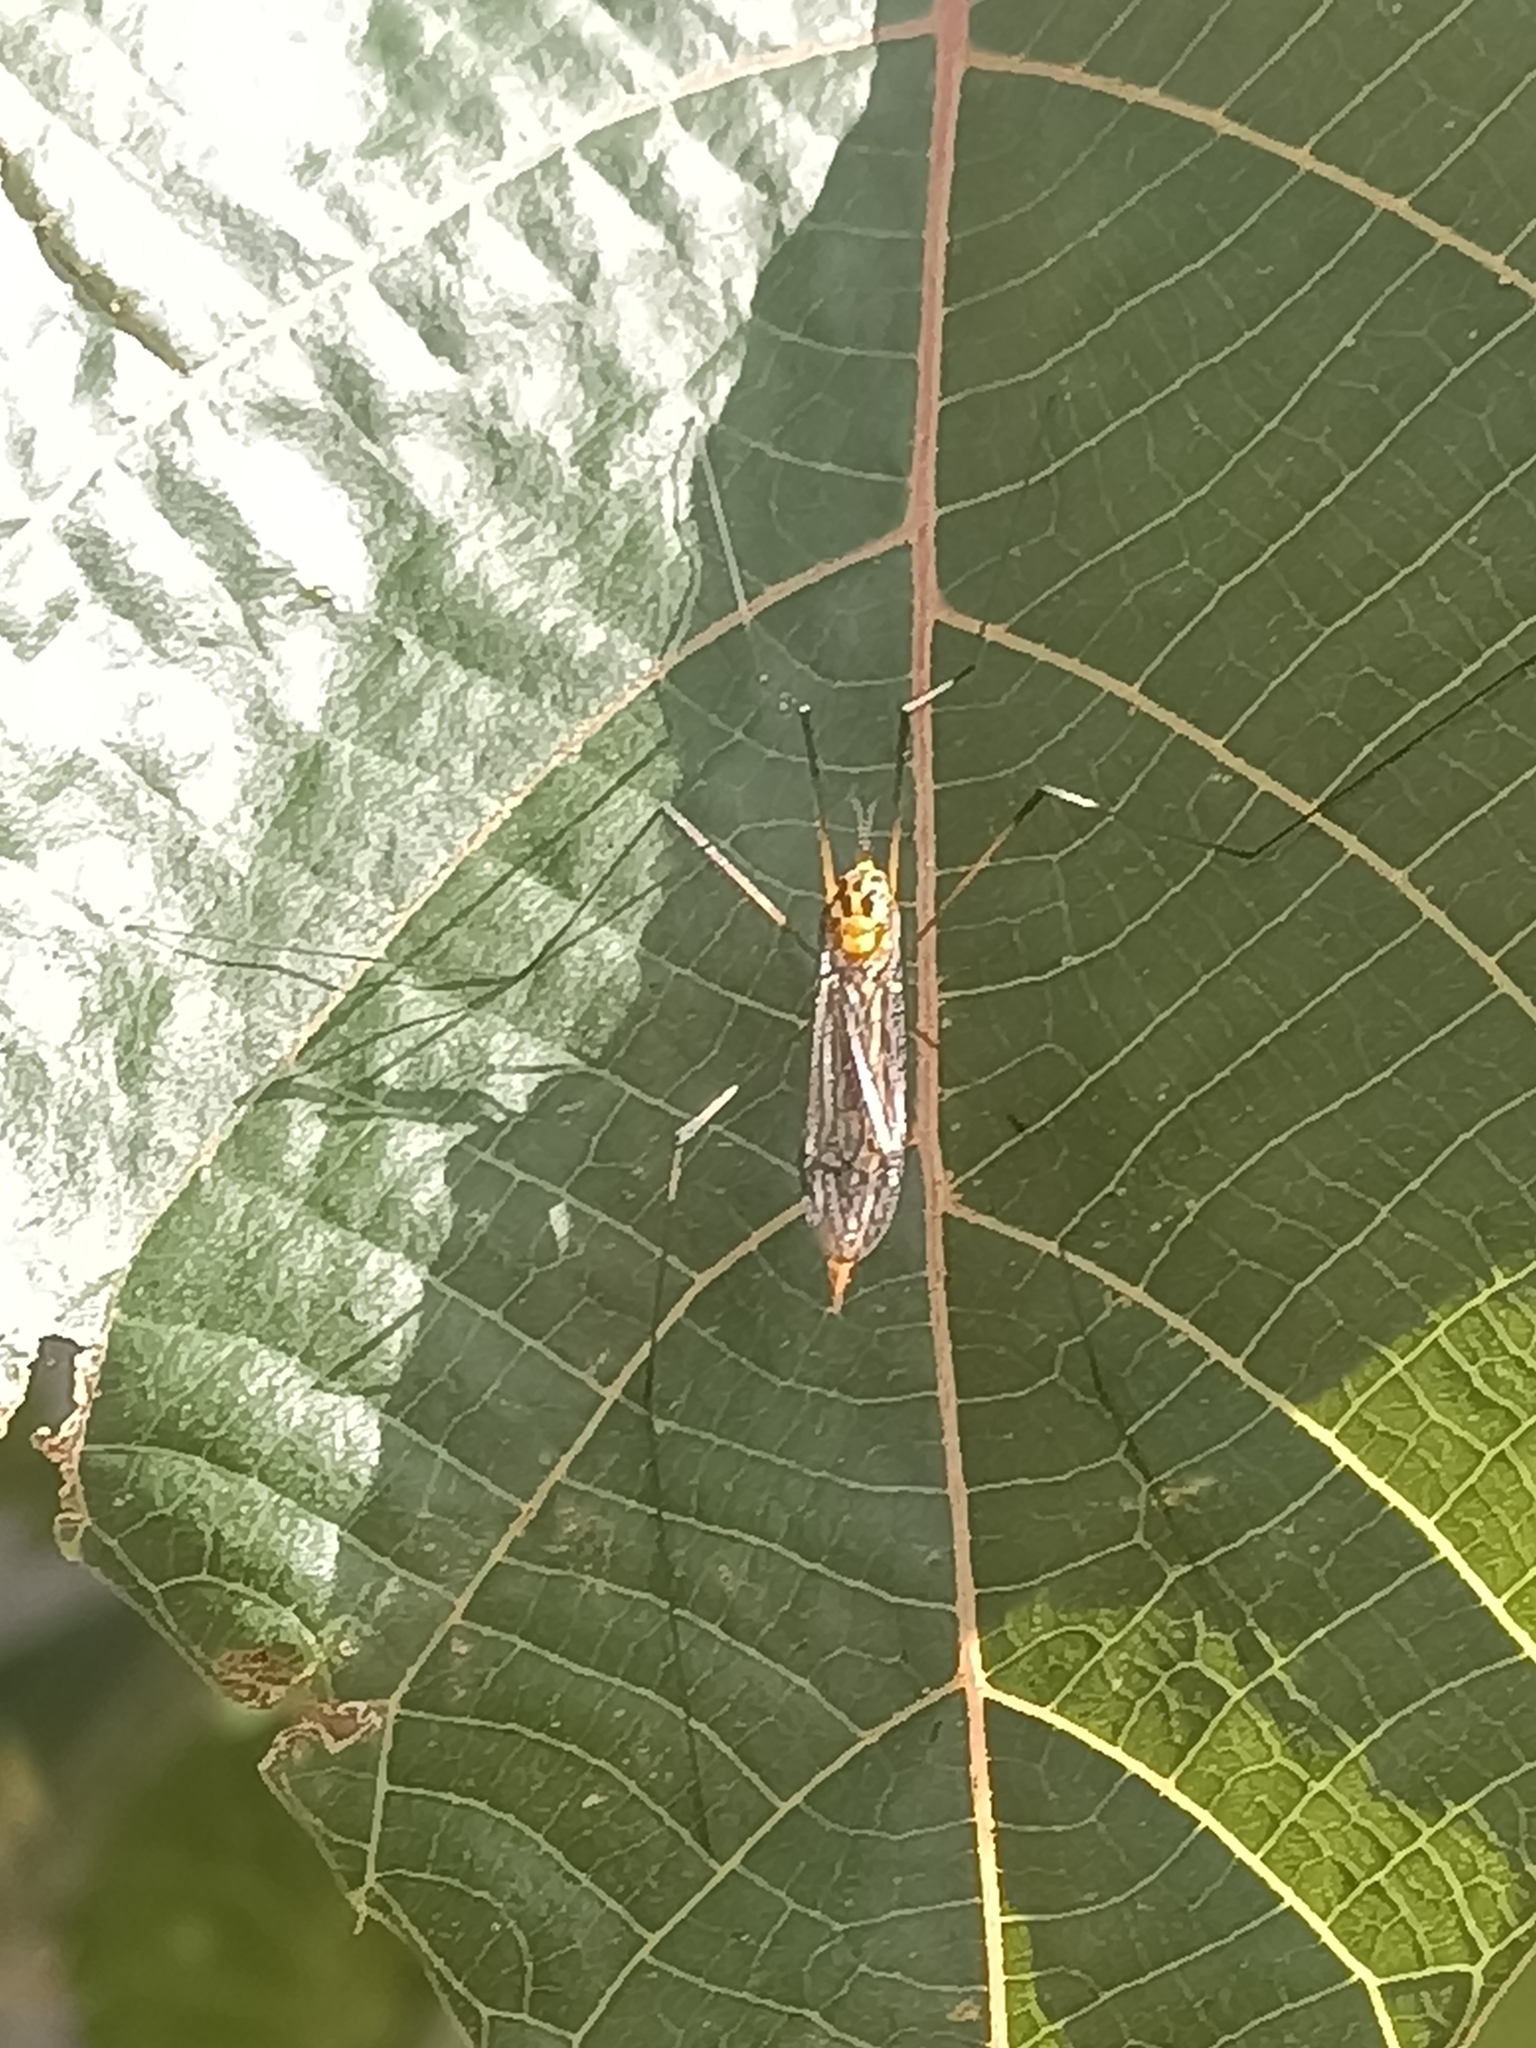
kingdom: Animalia
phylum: Arthropoda
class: Insecta
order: Diptera
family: Tipulidae
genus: Nephrotoma
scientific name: Nephrotoma australasiae
